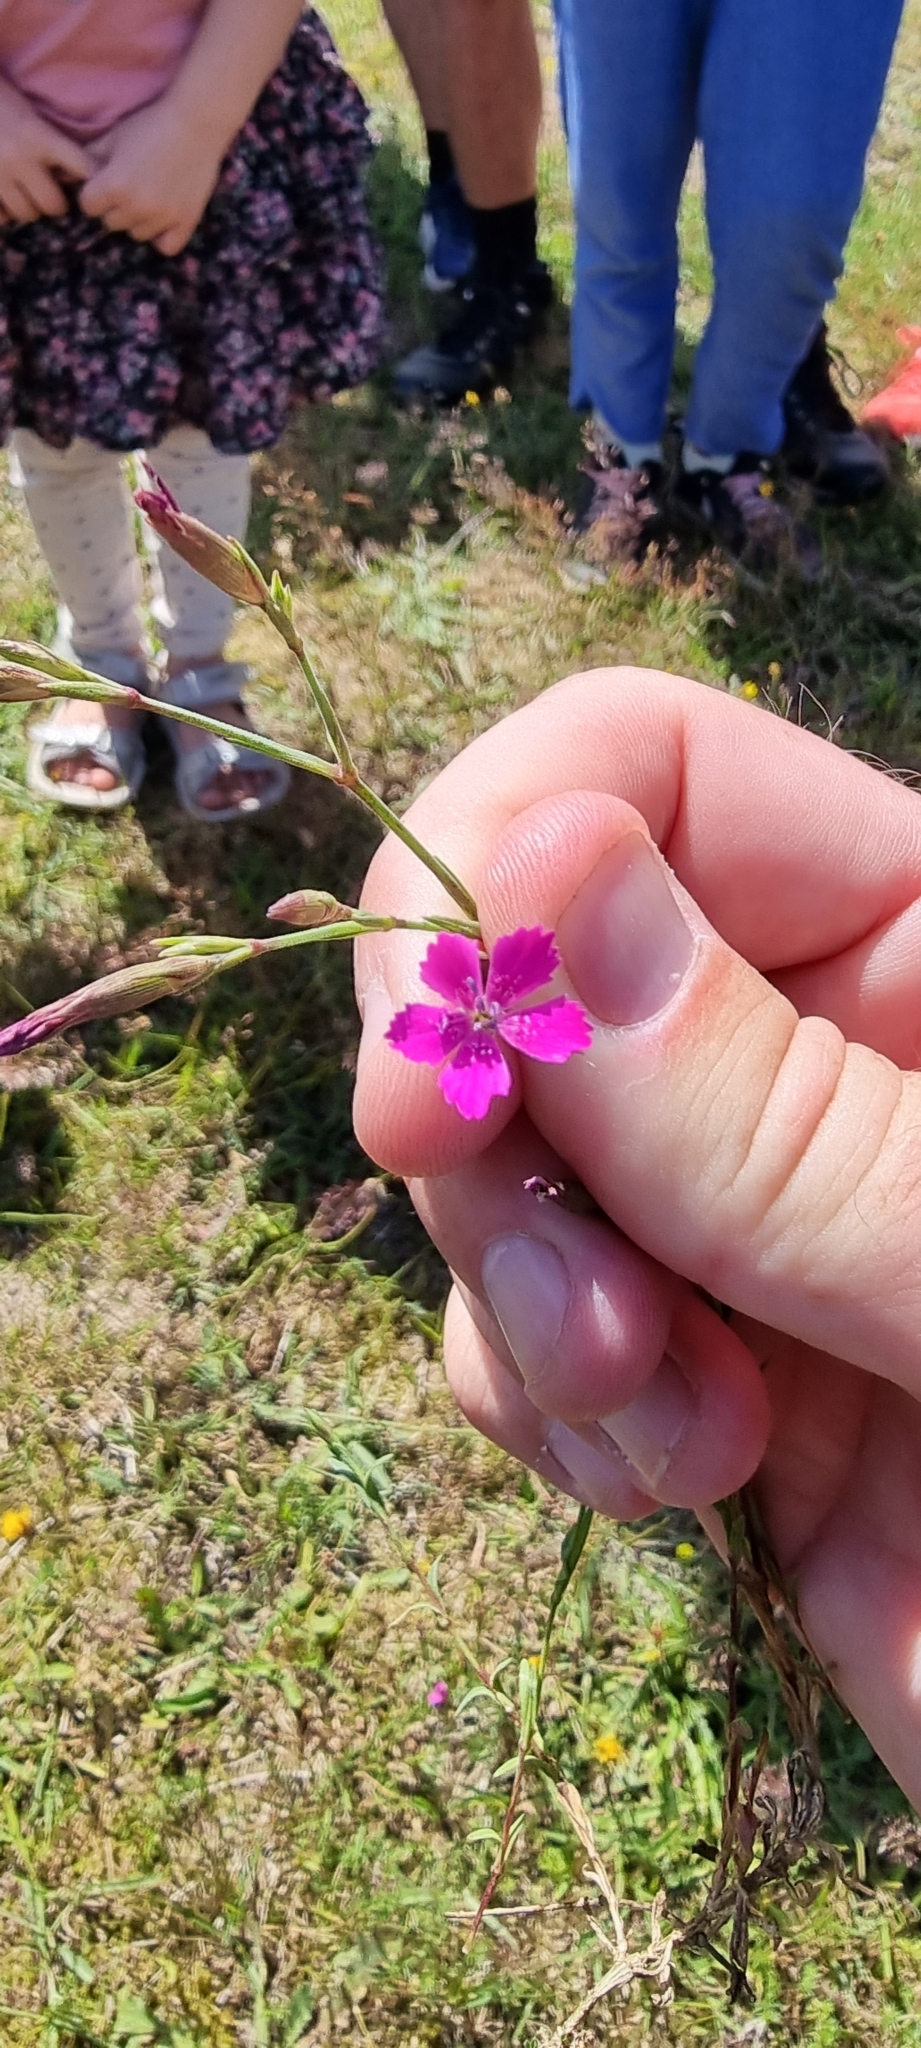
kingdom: Plantae
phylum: Tracheophyta
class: Magnoliopsida
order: Caryophyllales
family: Caryophyllaceae
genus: Dianthus
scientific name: Dianthus deltoides
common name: Maiden pink
